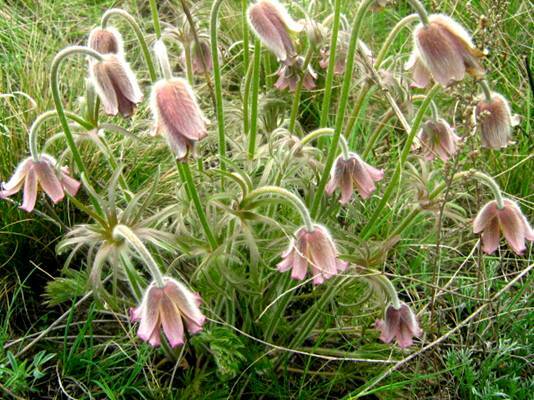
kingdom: Plantae
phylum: Tracheophyta
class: Magnoliopsida
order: Ranunculales
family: Ranunculaceae
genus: Pulsatilla
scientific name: Pulsatilla pratensis
